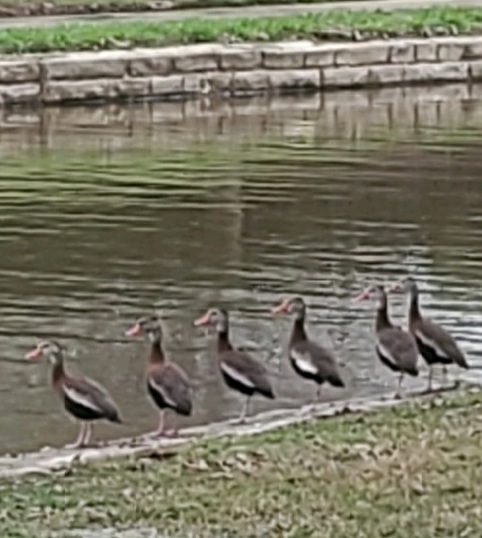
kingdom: Animalia
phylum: Chordata
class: Aves
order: Anseriformes
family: Anatidae
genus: Dendrocygna
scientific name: Dendrocygna autumnalis
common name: Black-bellied whistling duck
